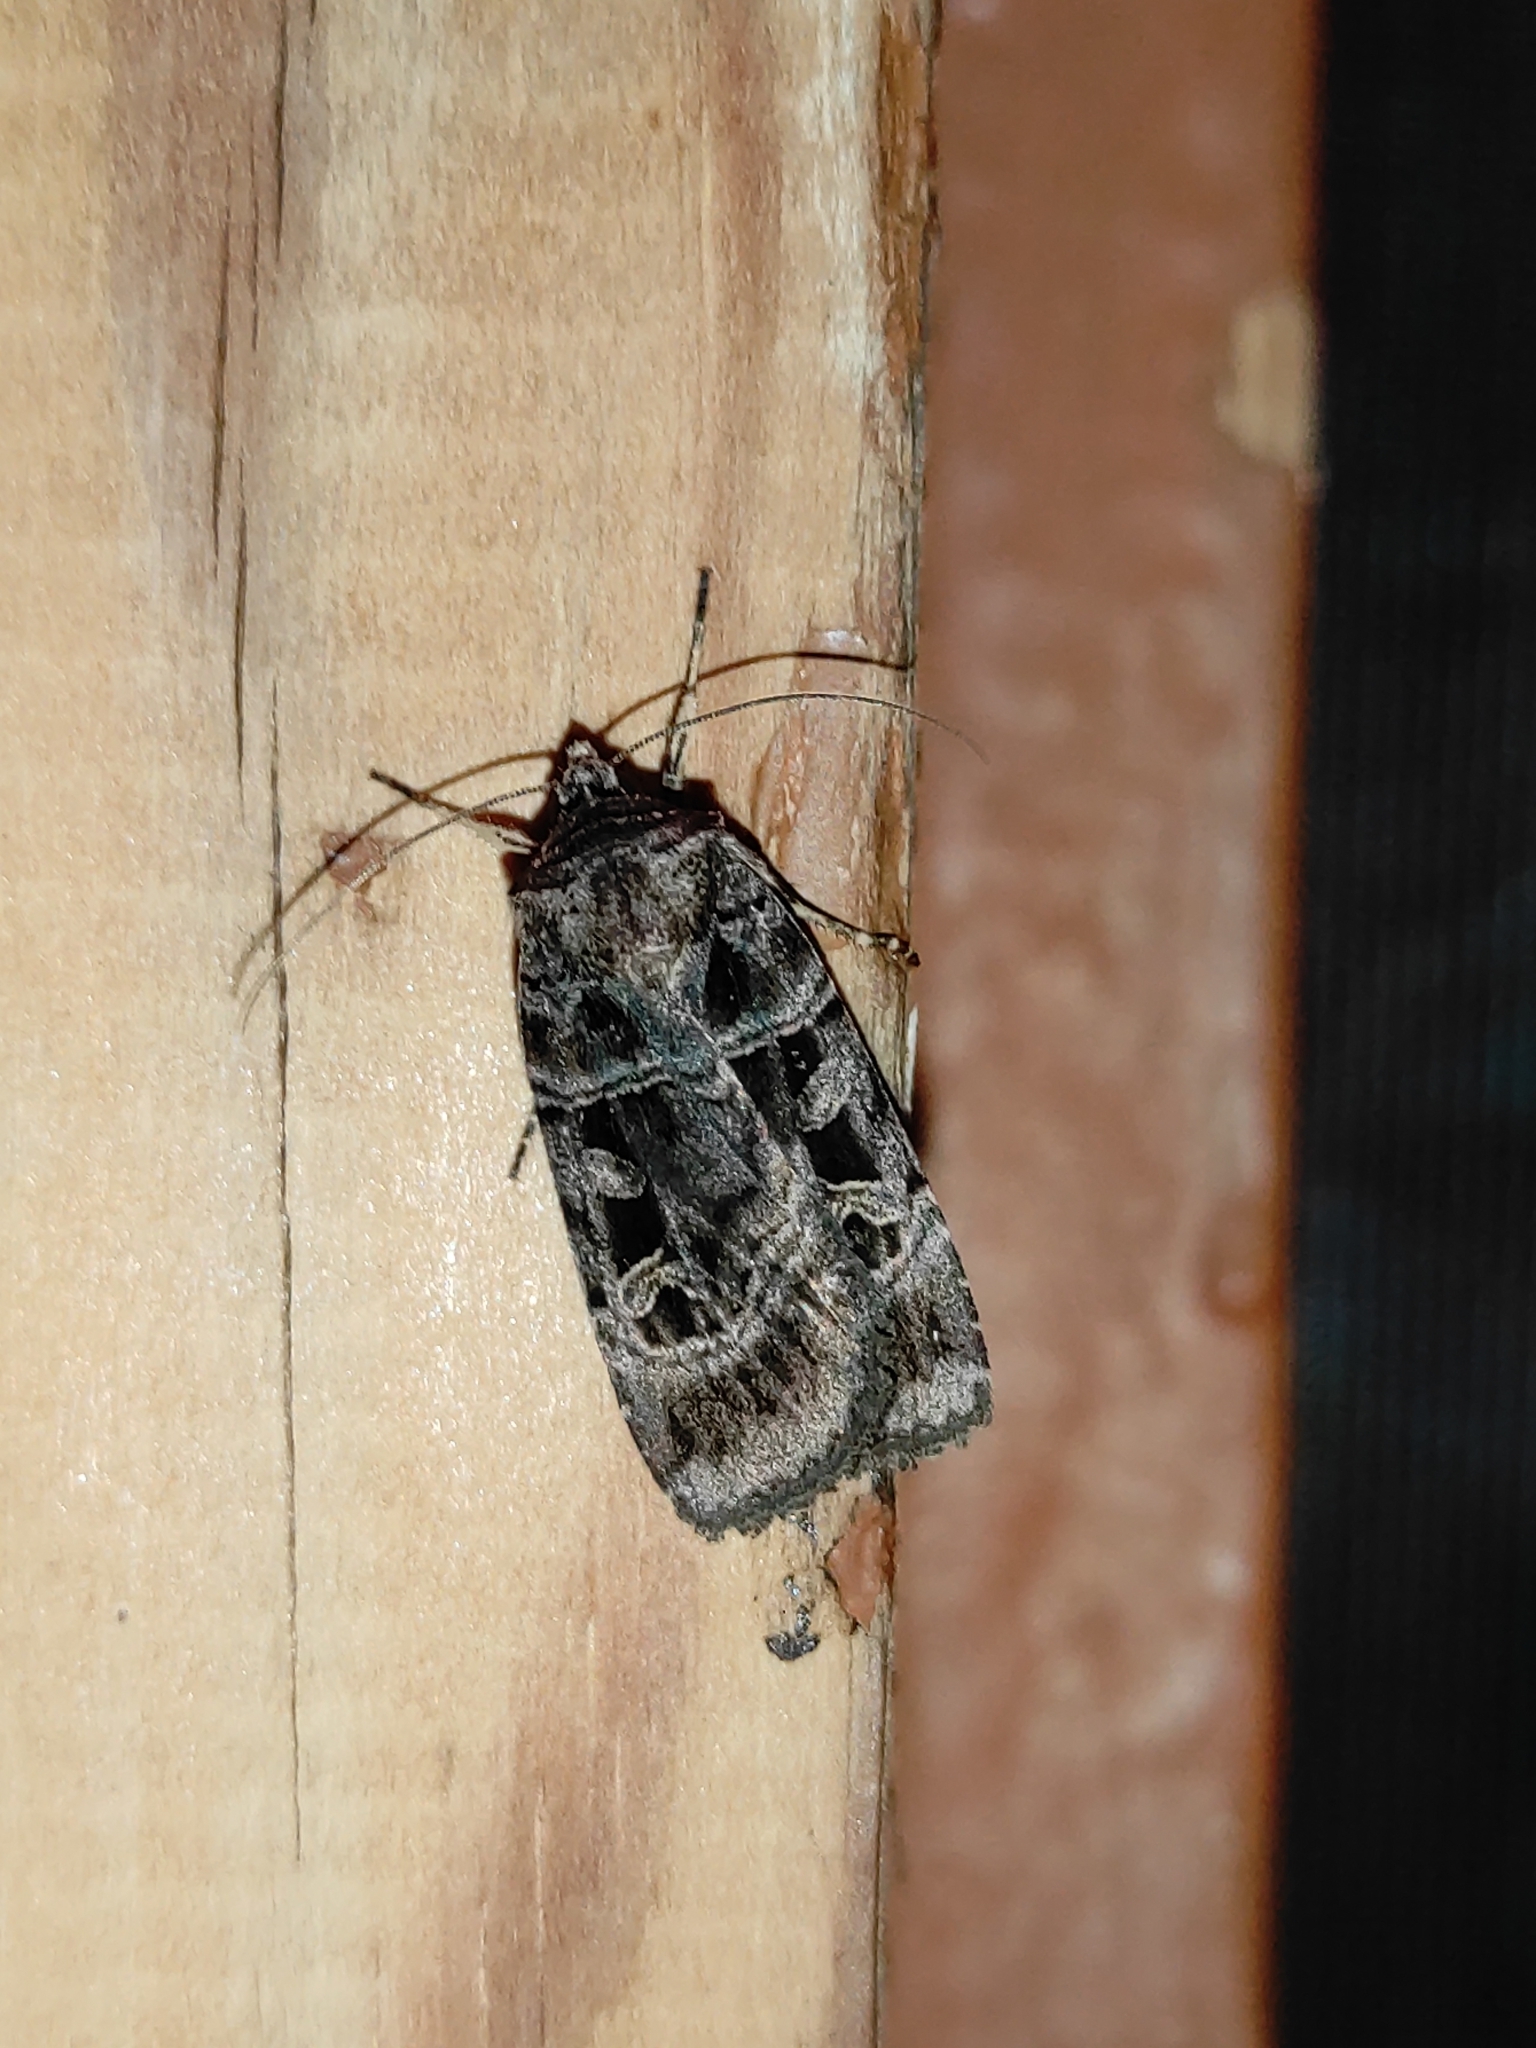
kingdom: Animalia
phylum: Arthropoda
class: Insecta
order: Lepidoptera
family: Noctuidae
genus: Pseudohermonassa
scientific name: Pseudohermonassa melancholica
